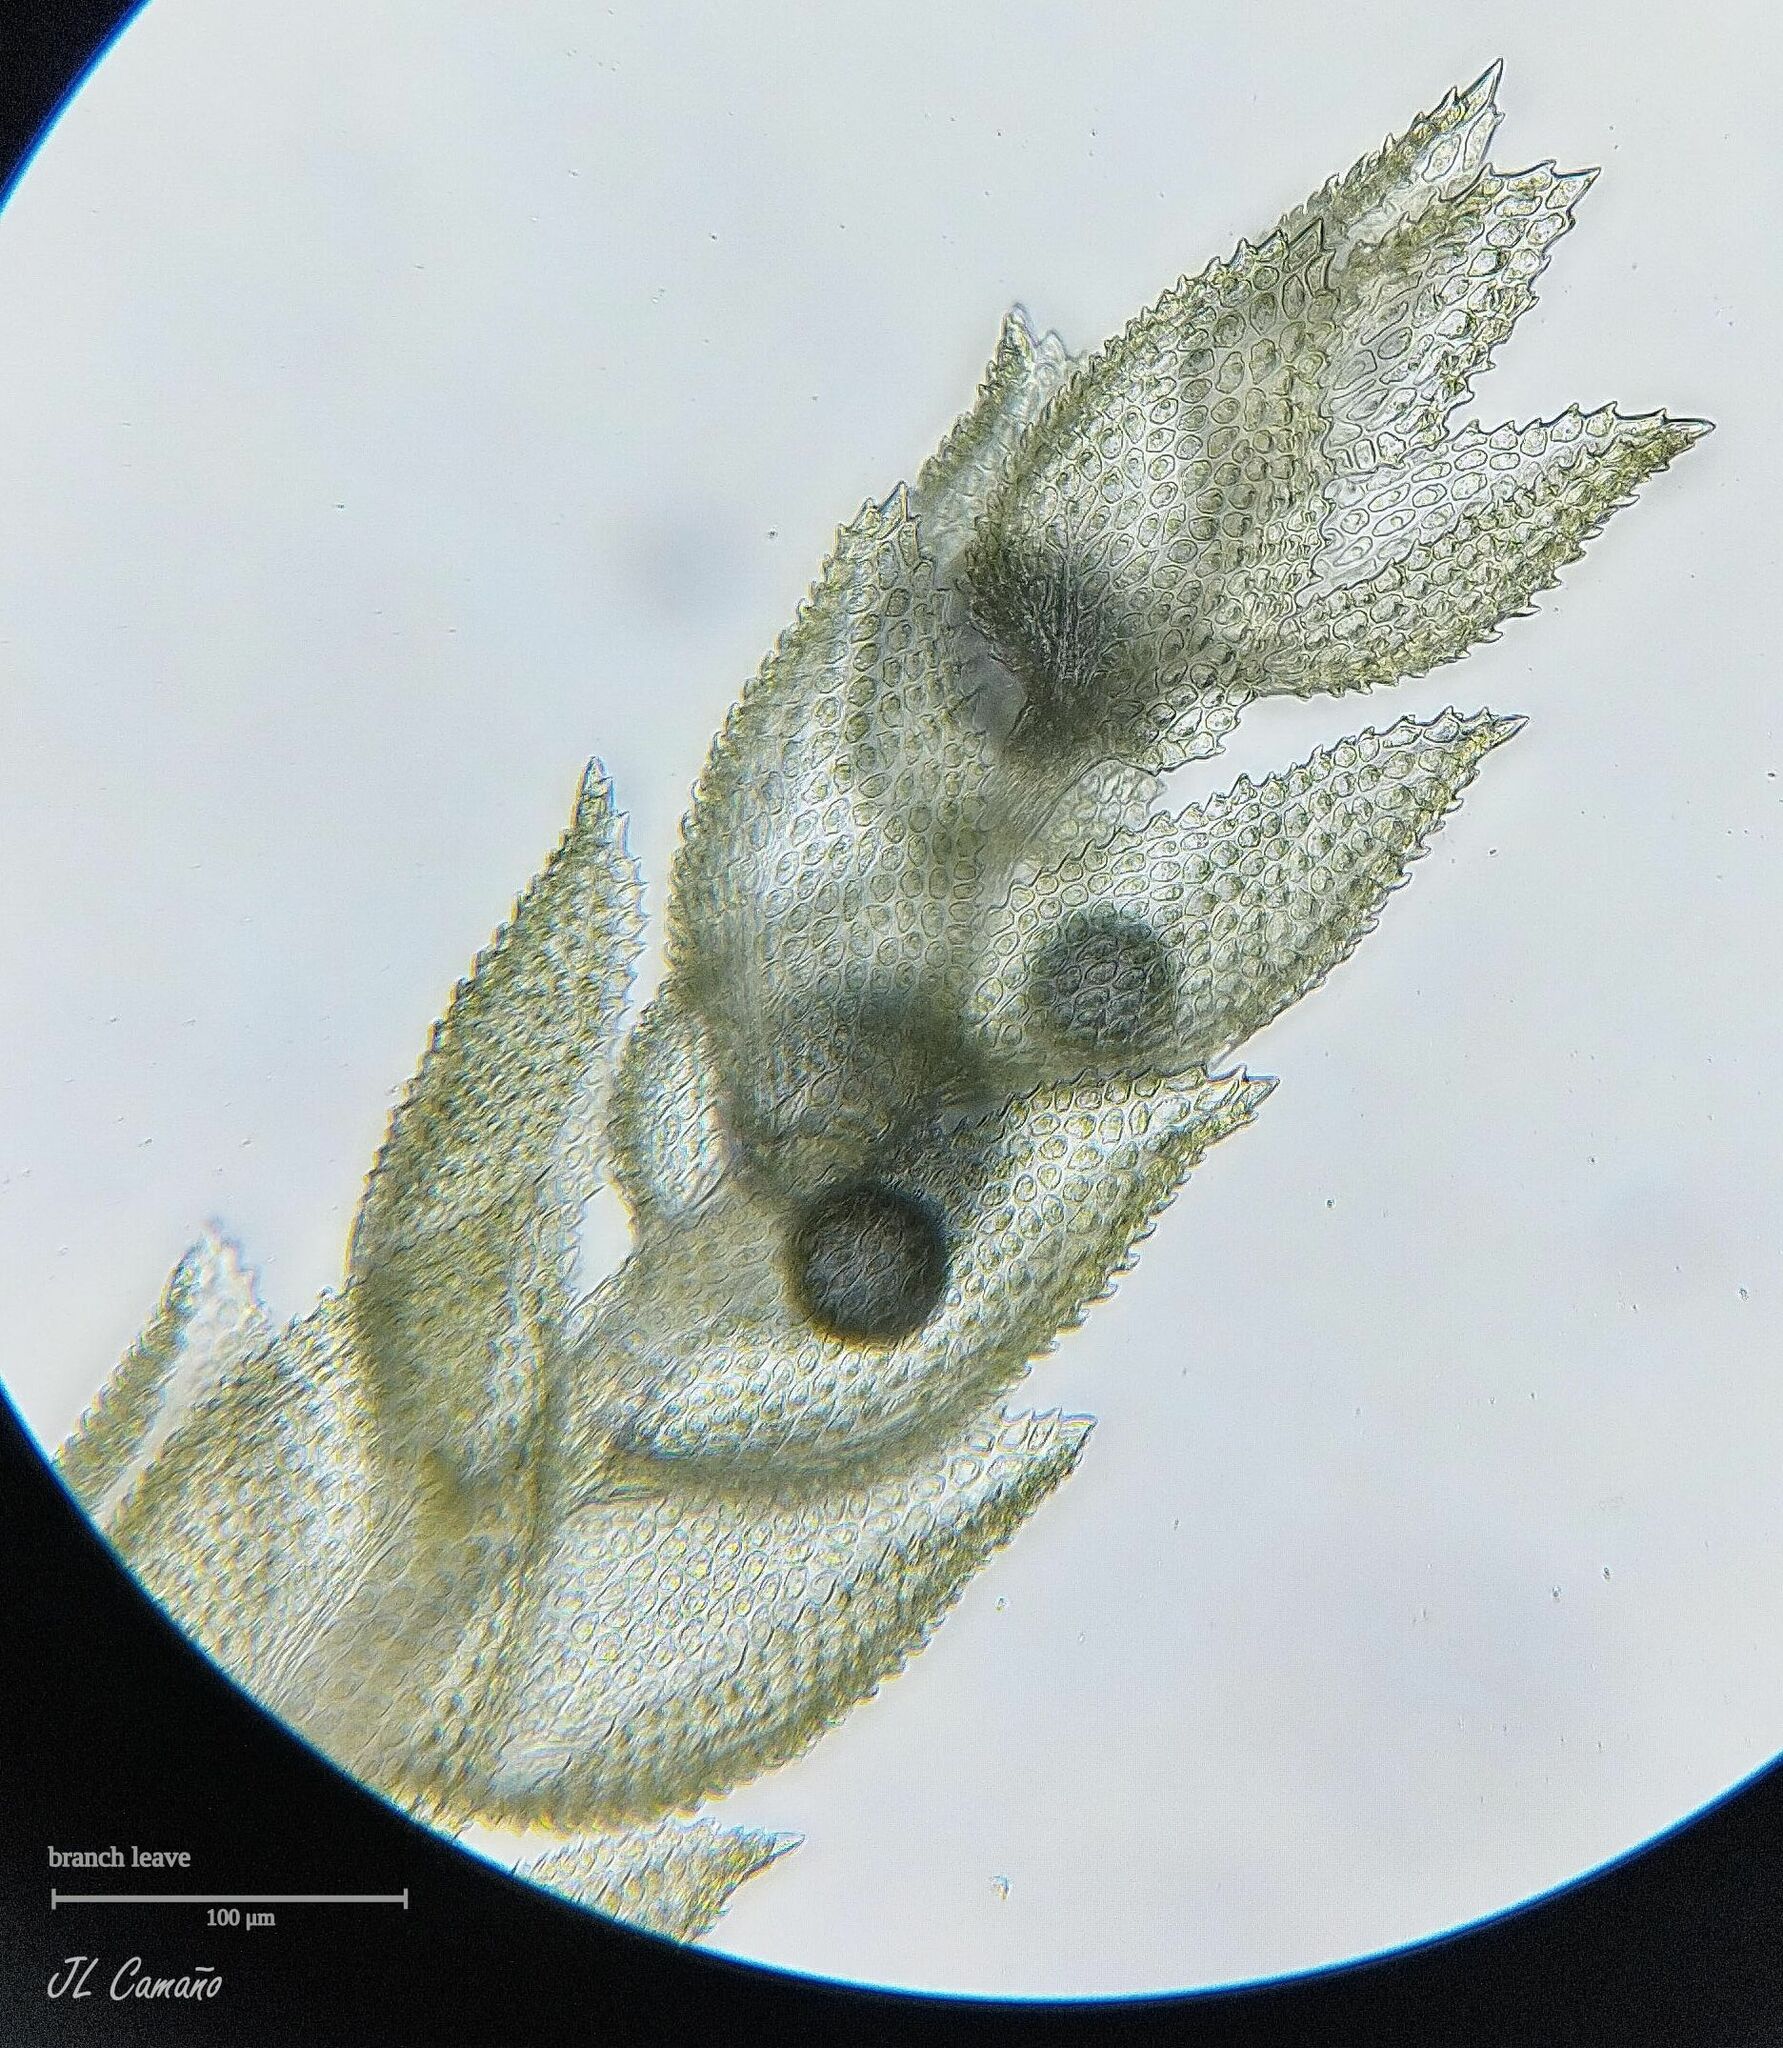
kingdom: Plantae
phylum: Bryophyta
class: Bryopsida
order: Hypnales
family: Thuidiaceae
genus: Thuidium
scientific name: Thuidium tamariscinum
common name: Common tamarisk-moss
